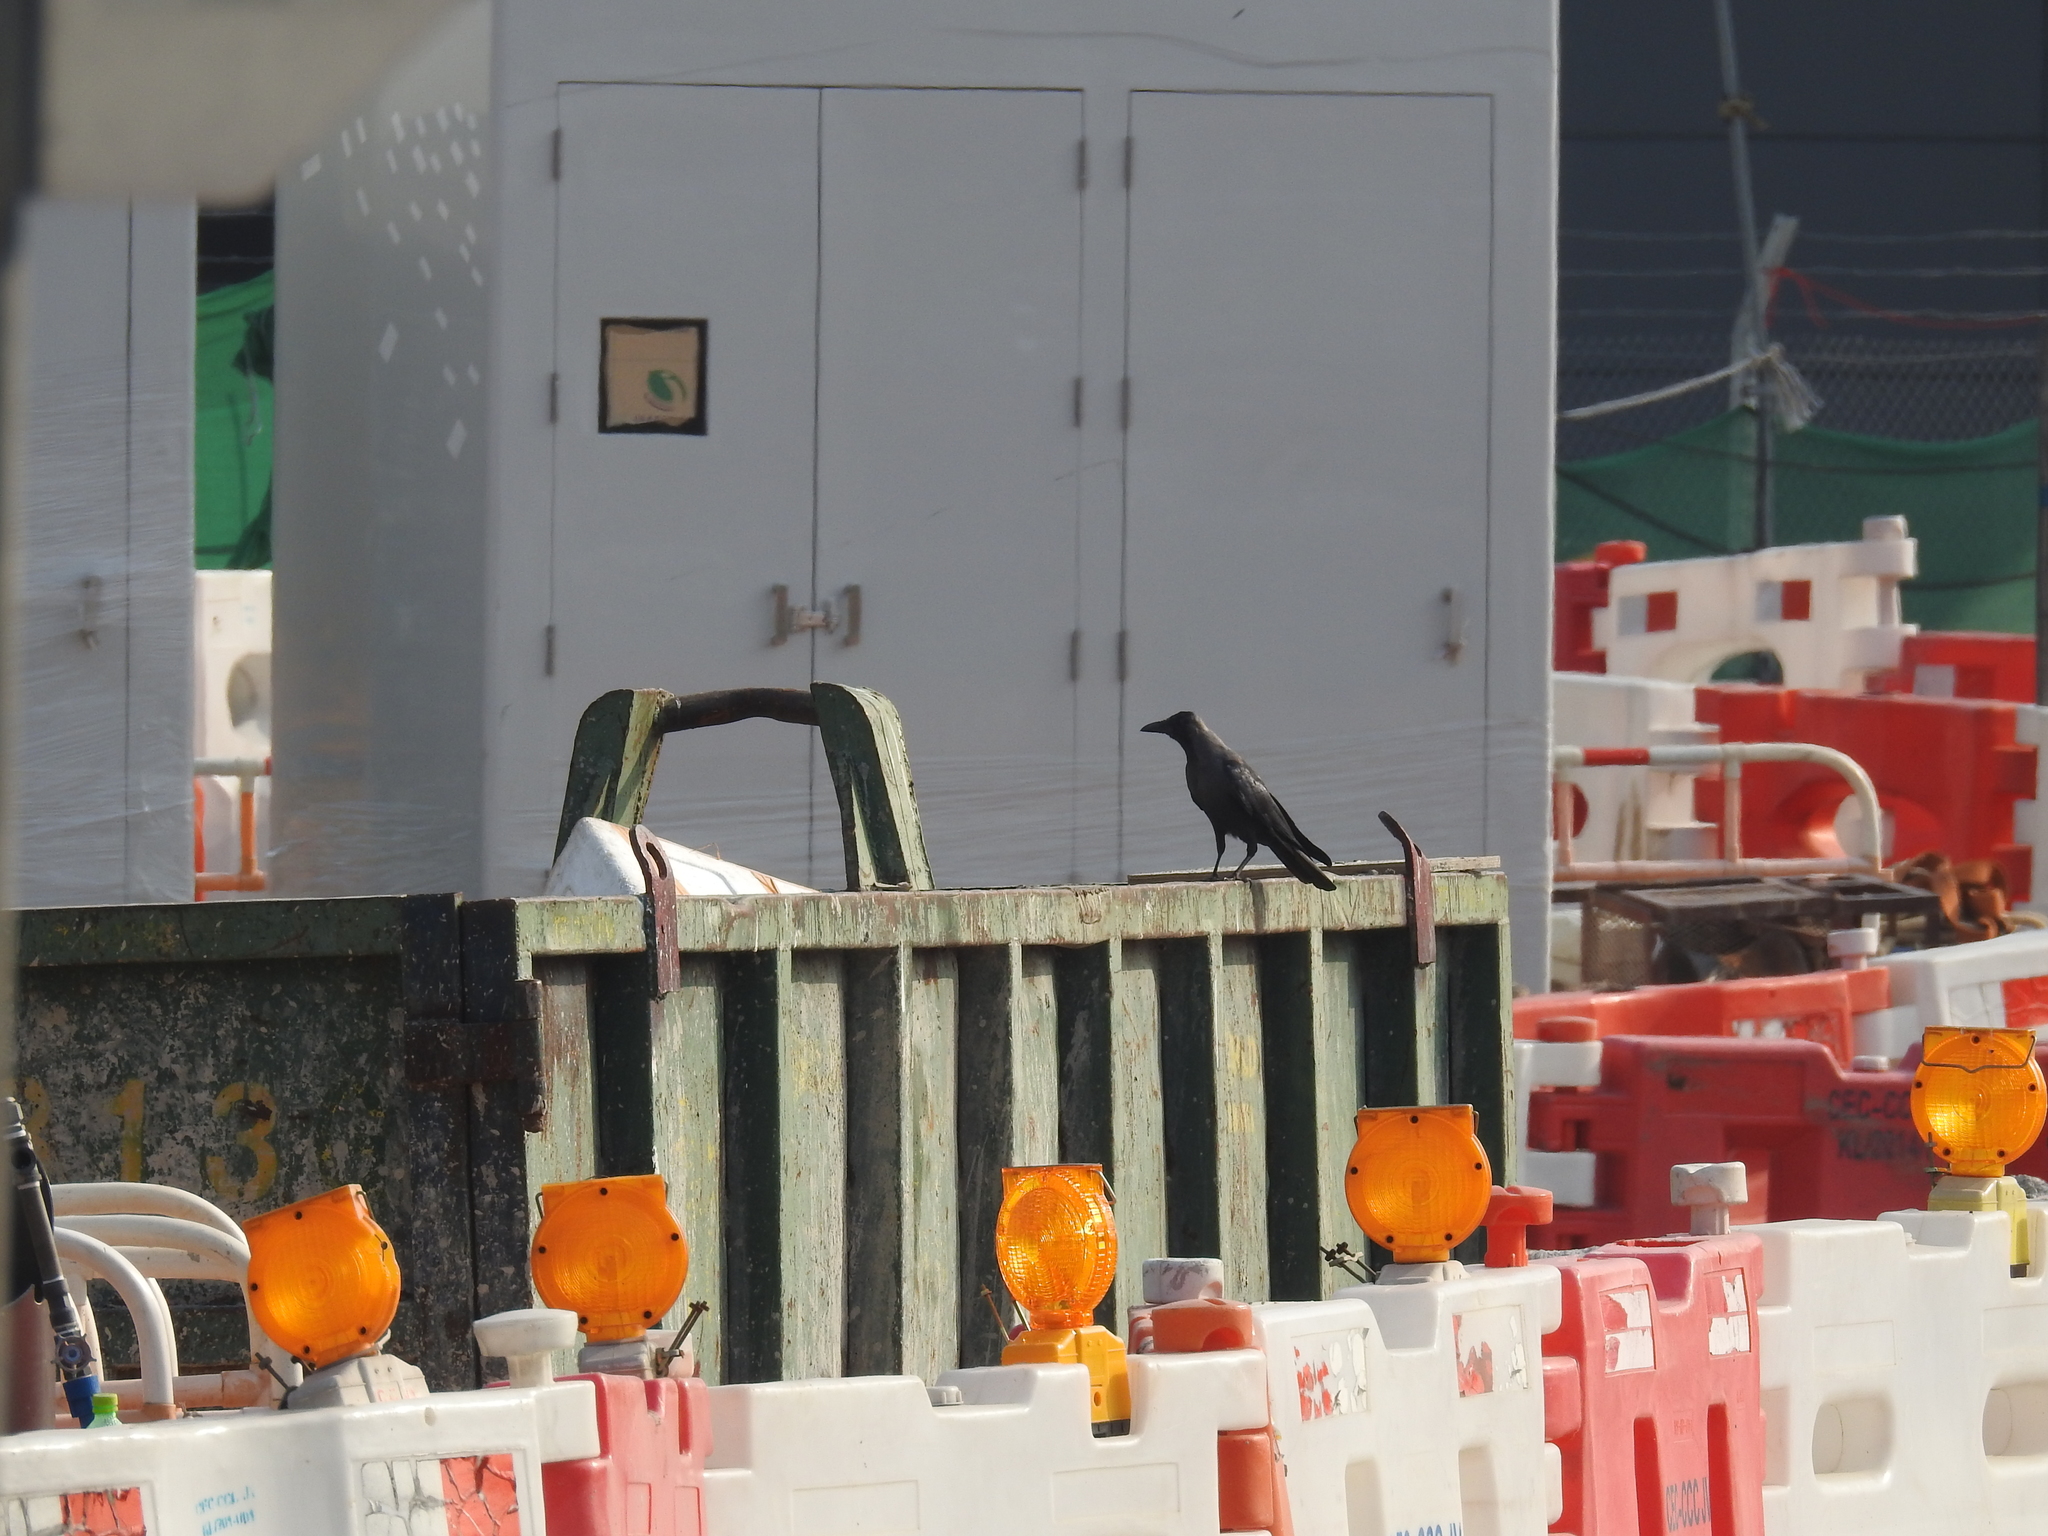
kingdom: Animalia
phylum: Chordata
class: Aves
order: Passeriformes
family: Corvidae
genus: Corvus
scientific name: Corvus splendens
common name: House crow
